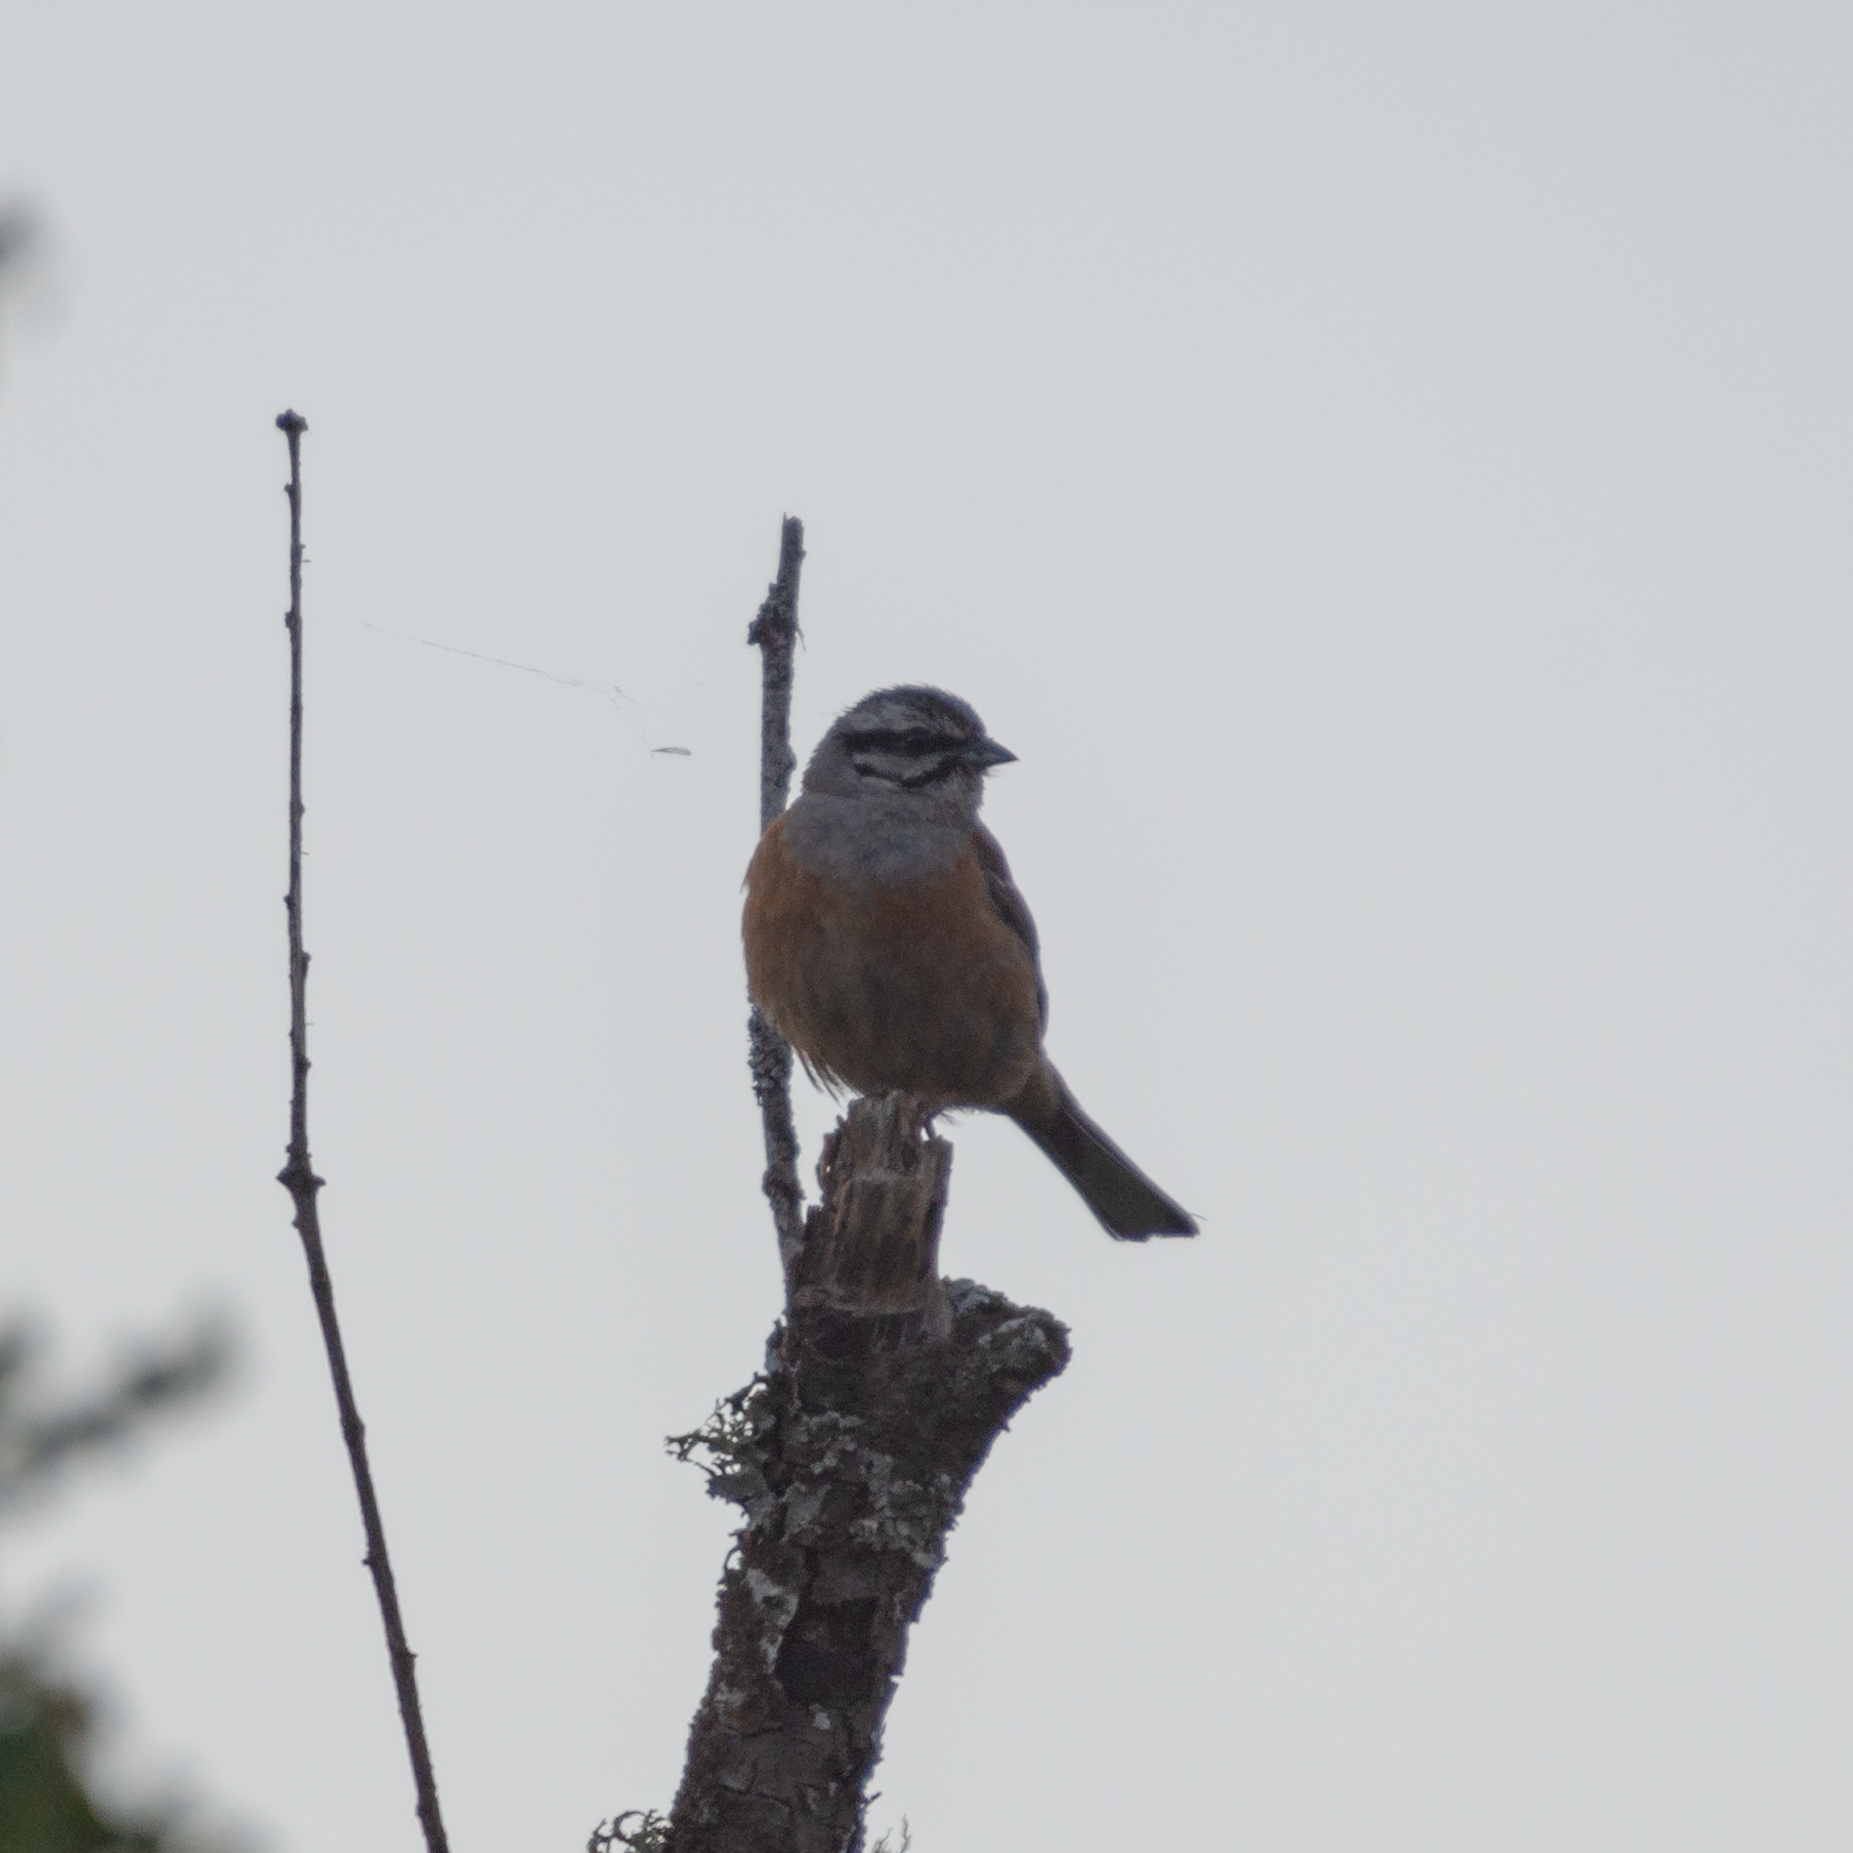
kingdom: Animalia
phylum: Chordata
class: Aves
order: Passeriformes
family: Emberizidae
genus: Emberiza
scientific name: Emberiza cia
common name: Rock bunting
